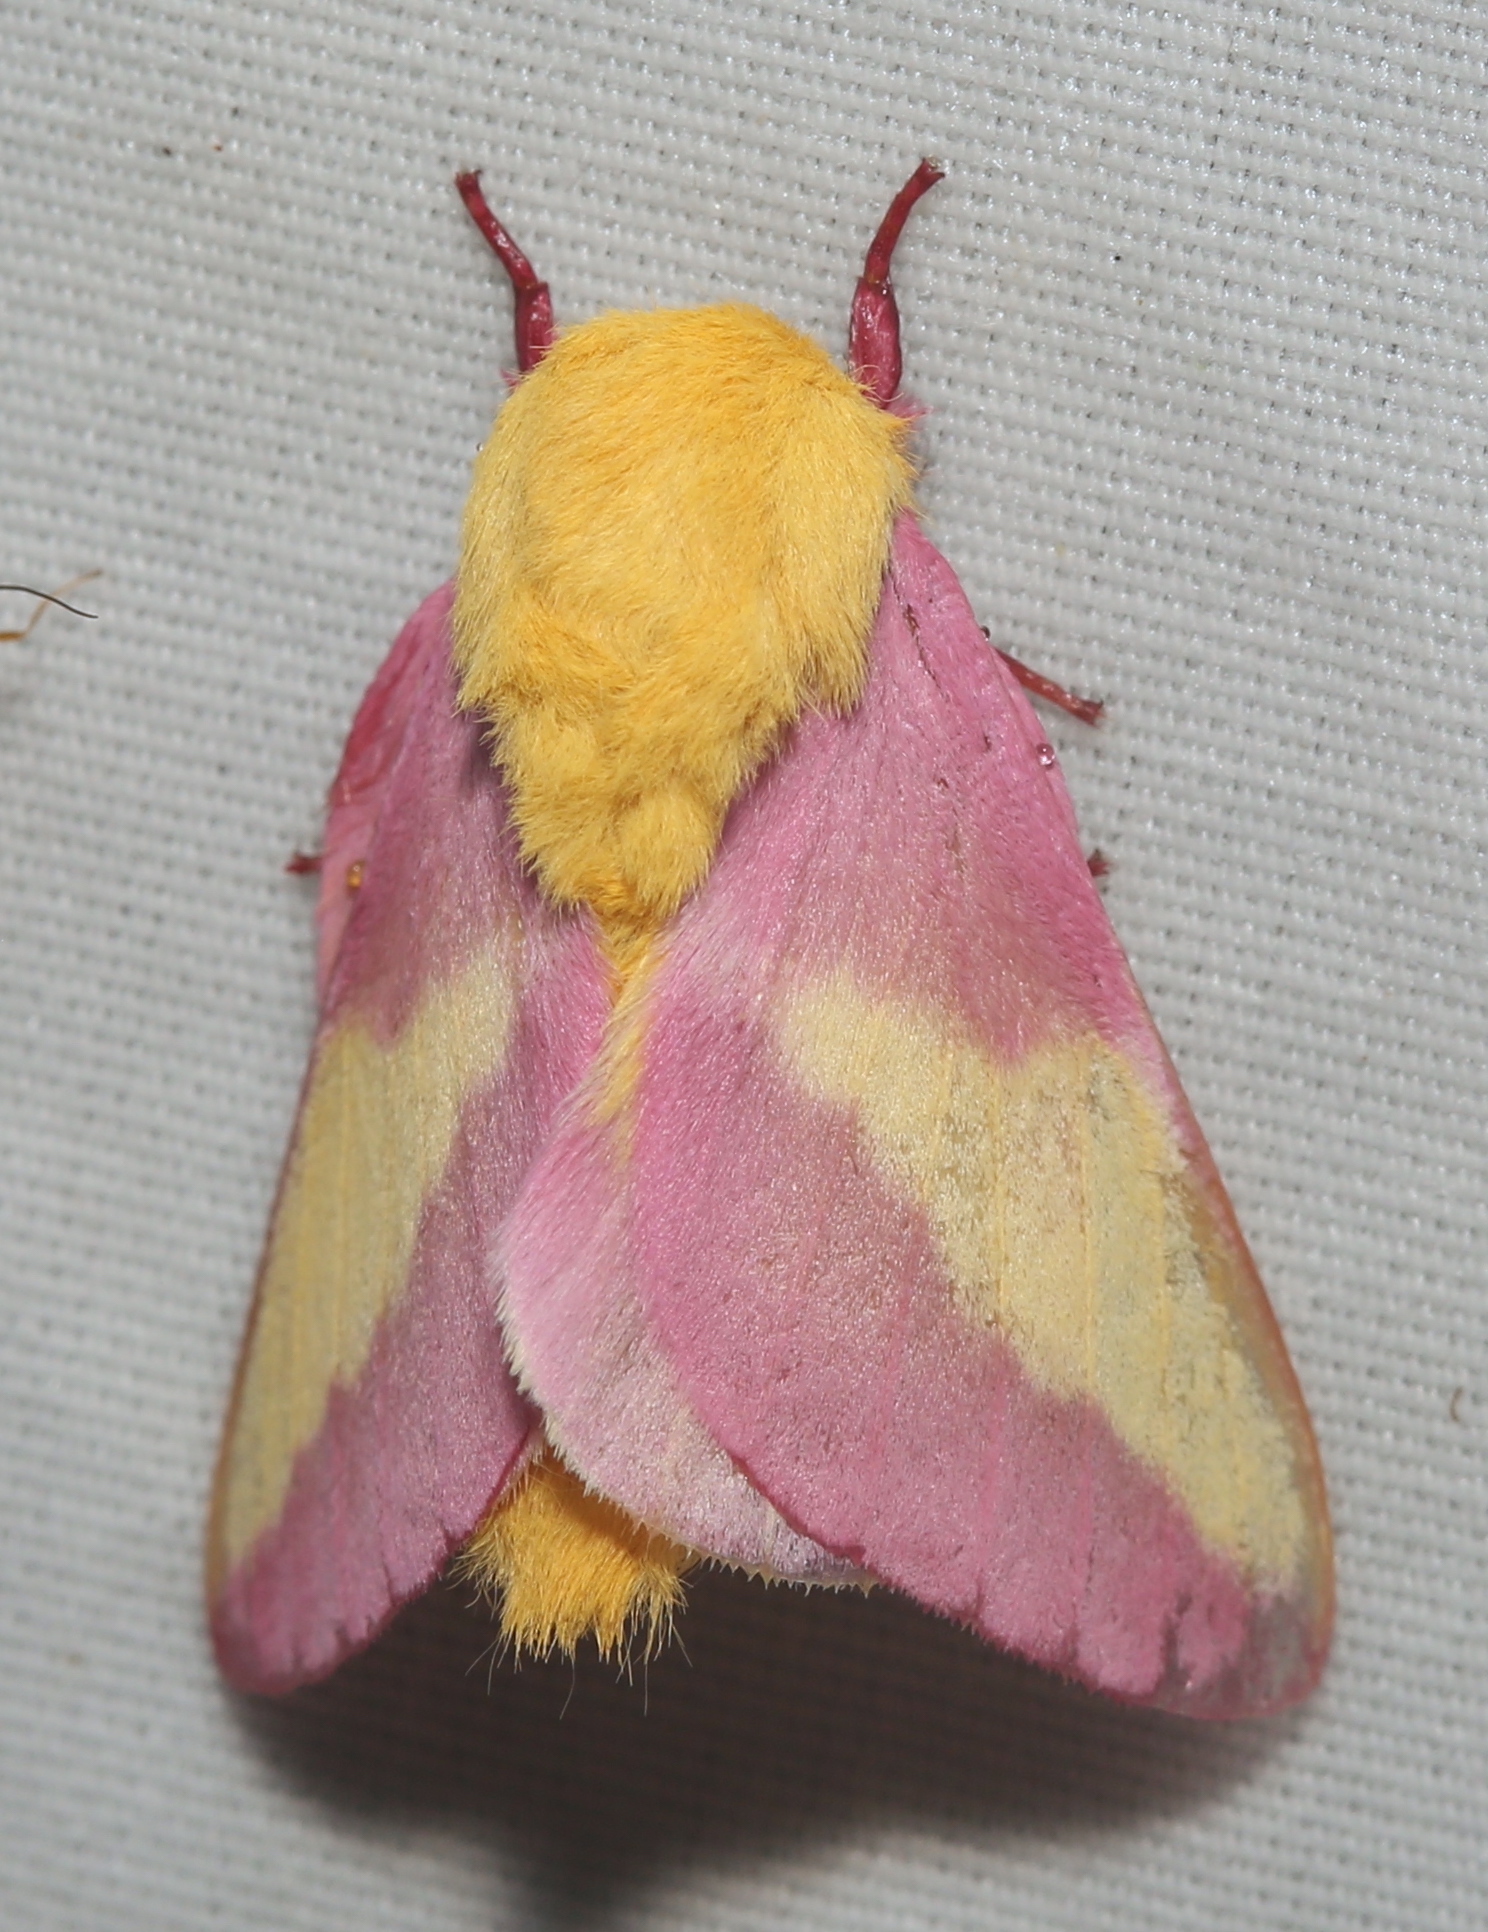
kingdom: Animalia
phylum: Arthropoda
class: Insecta
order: Lepidoptera
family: Saturniidae
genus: Dryocampa
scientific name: Dryocampa rubicunda
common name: Rosy maple moth
